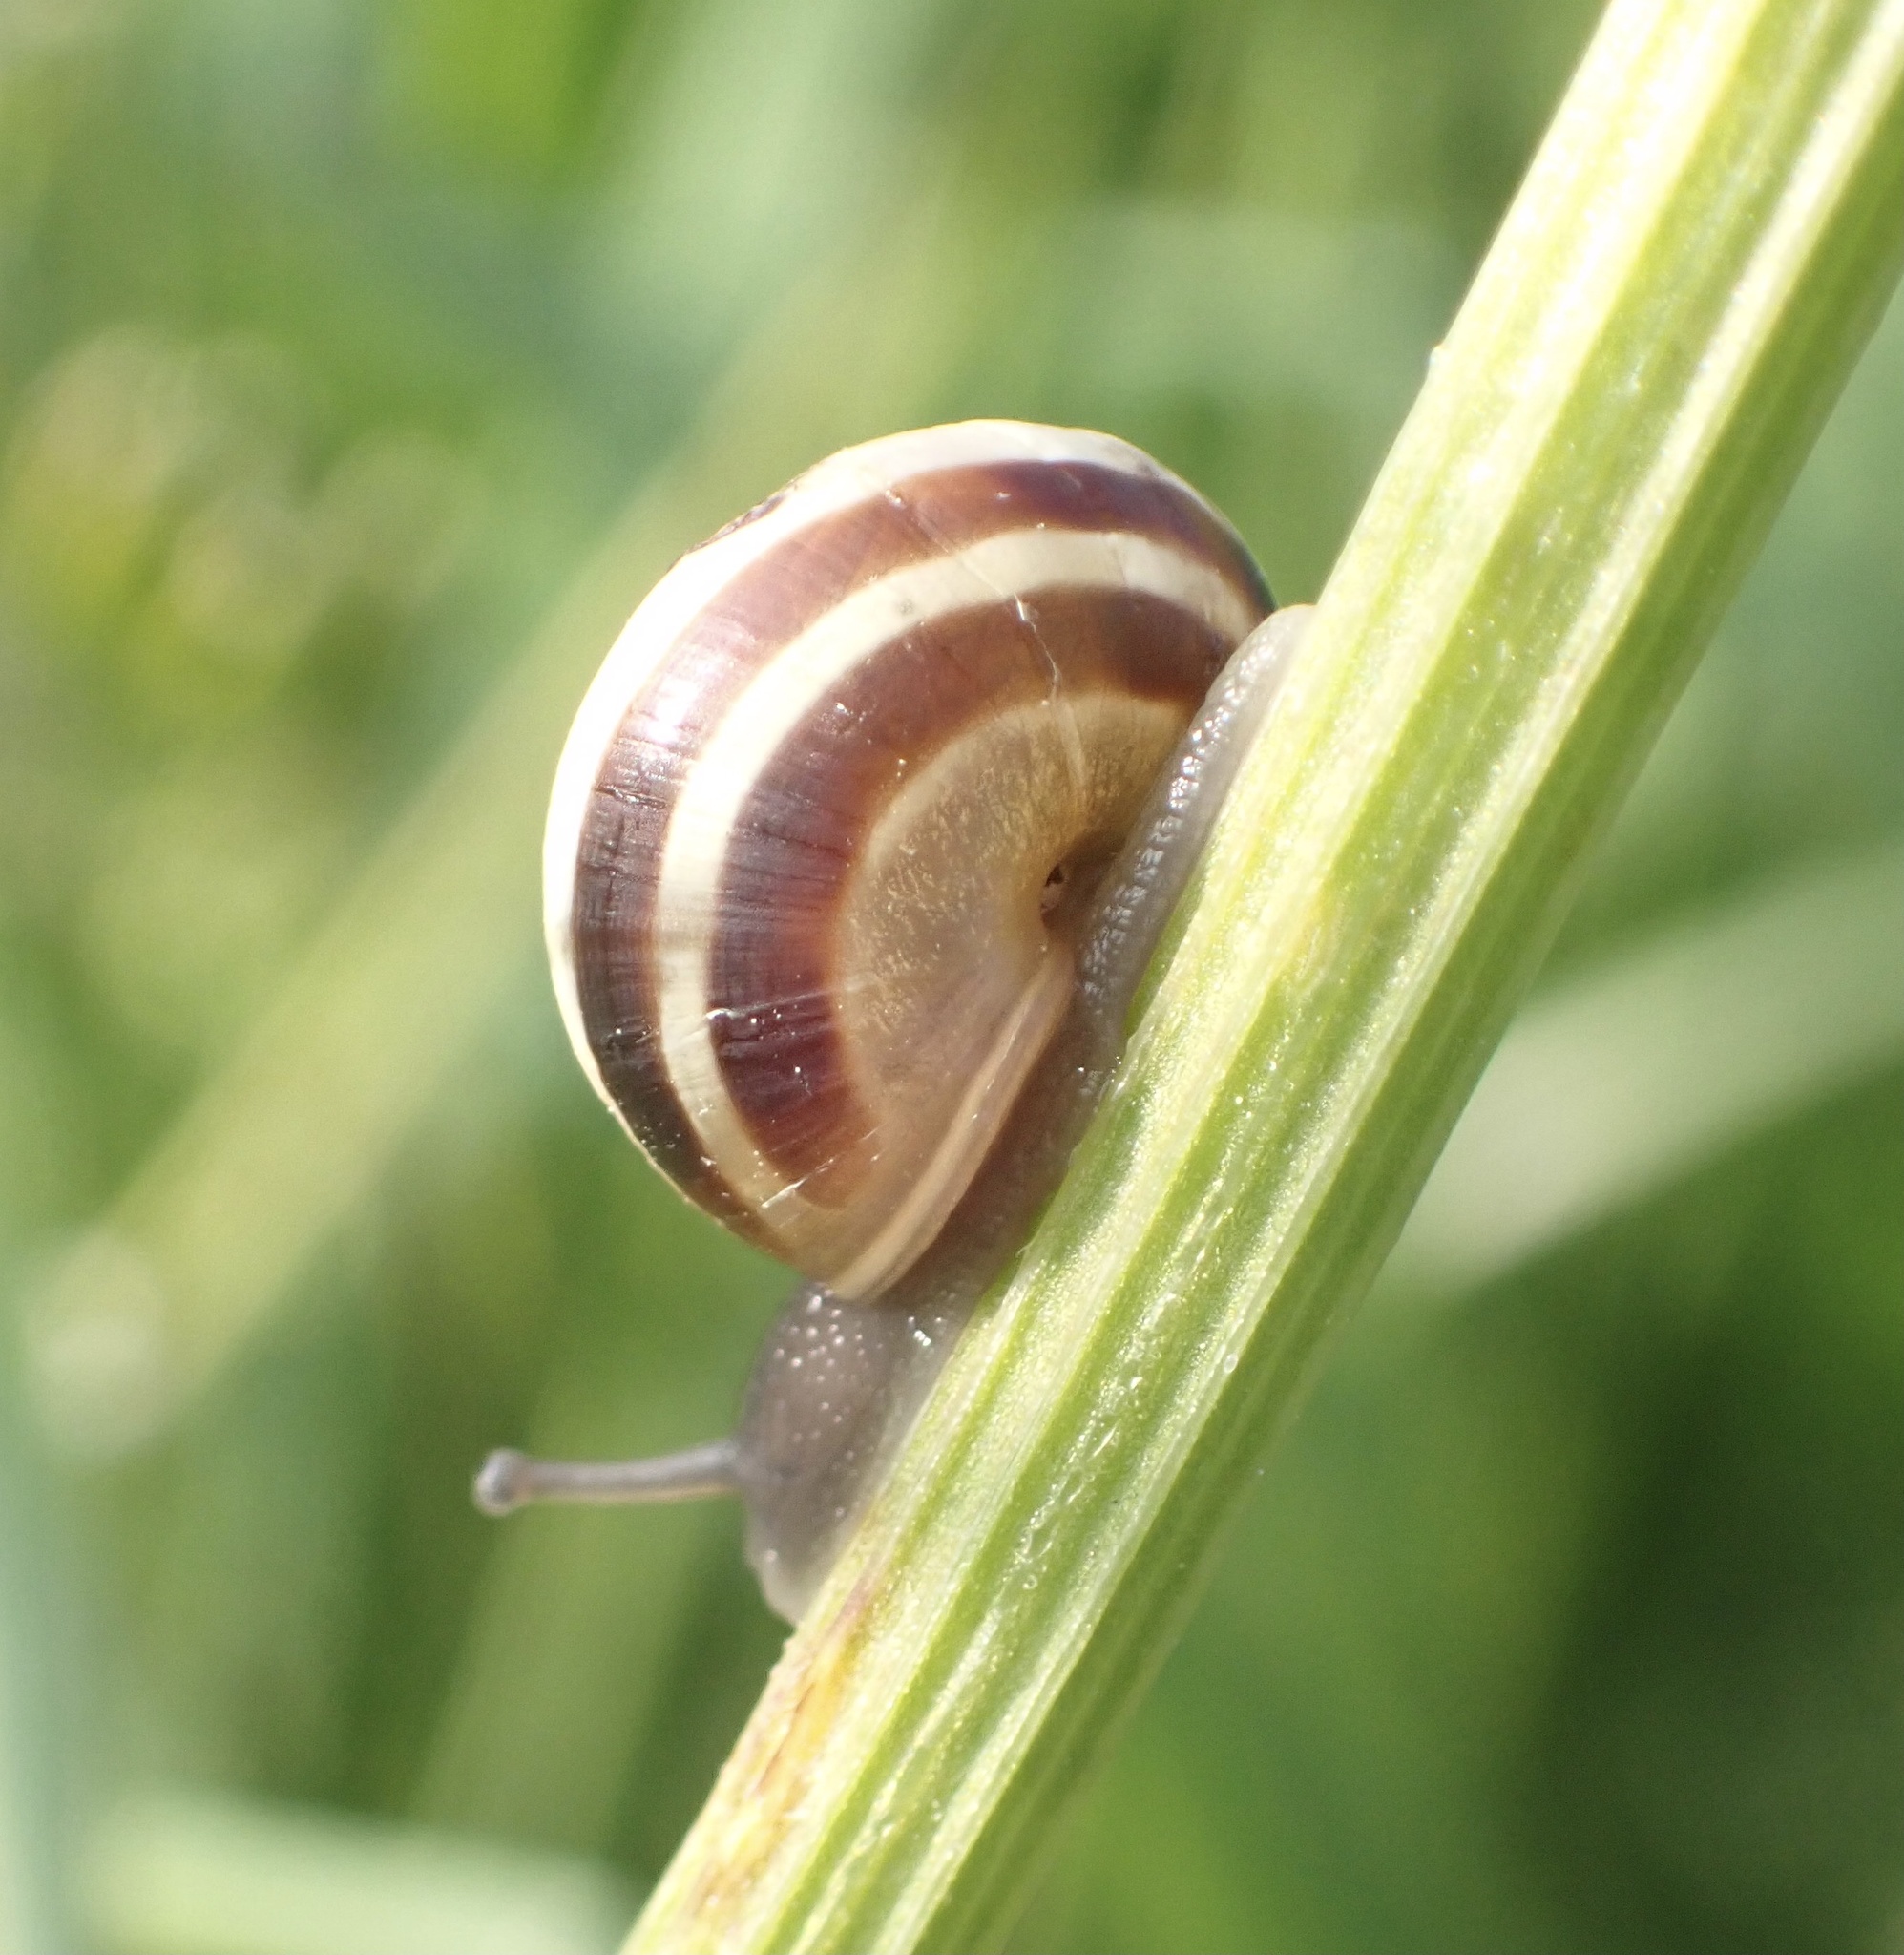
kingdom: Animalia
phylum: Mollusca
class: Gastropoda
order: Stylommatophora
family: Helicidae
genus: Cepaea
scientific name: Cepaea
